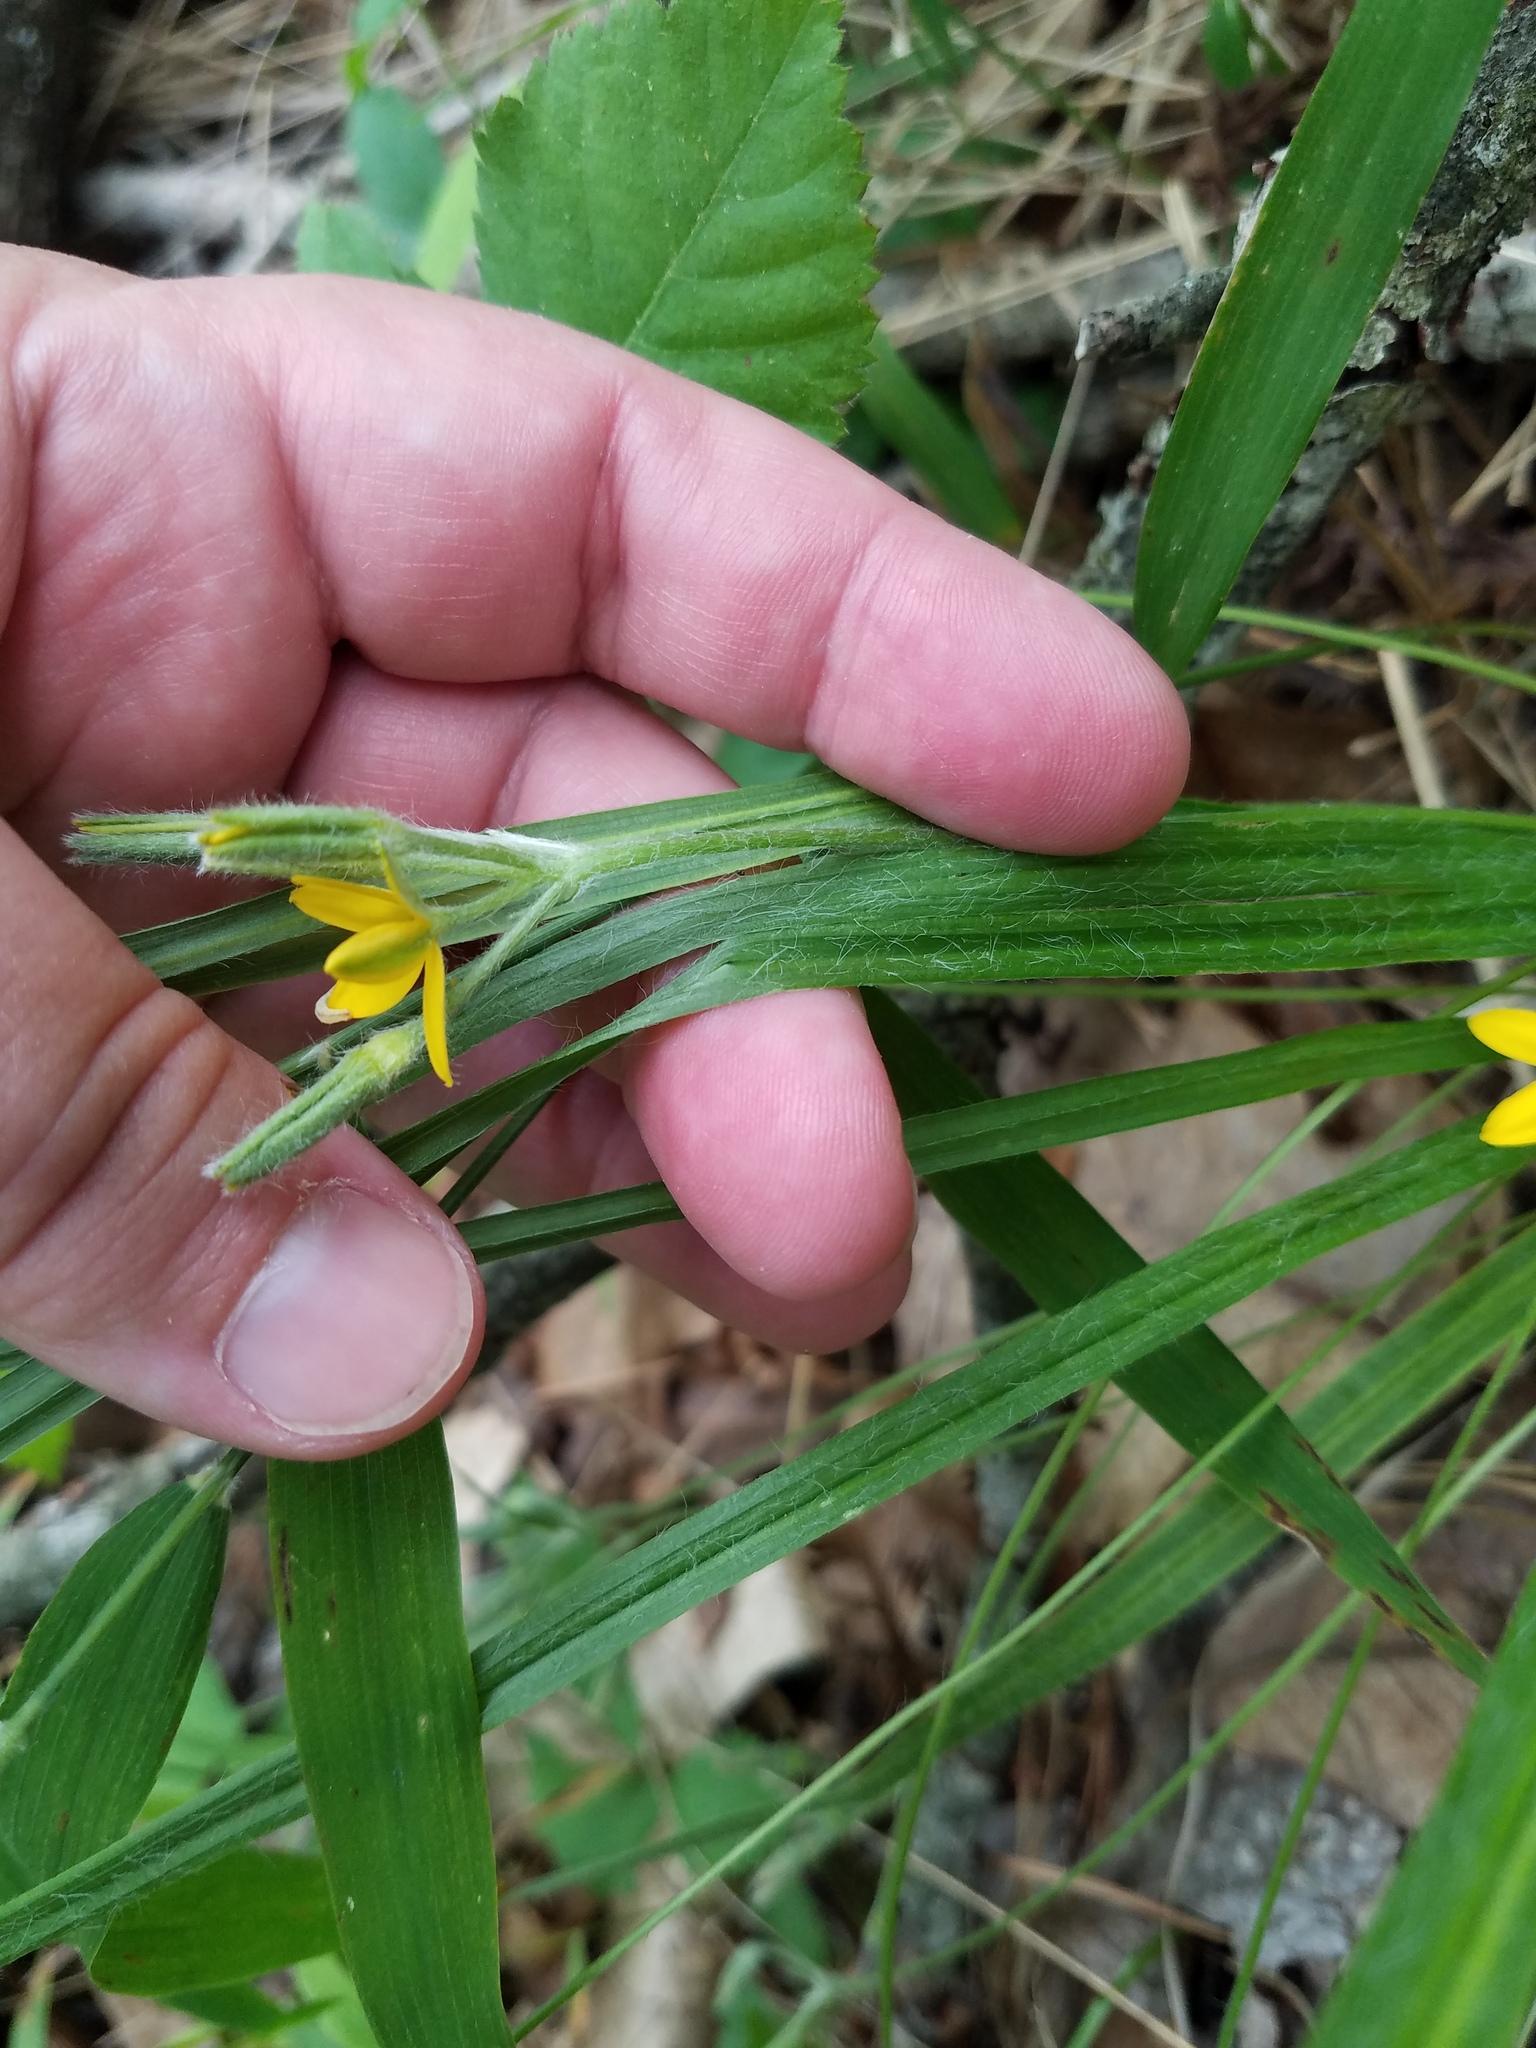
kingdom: Plantae
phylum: Tracheophyta
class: Liliopsida
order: Asparagales
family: Hypoxidaceae
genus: Hypoxis
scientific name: Hypoxis hirsuta
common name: Common goldstar
